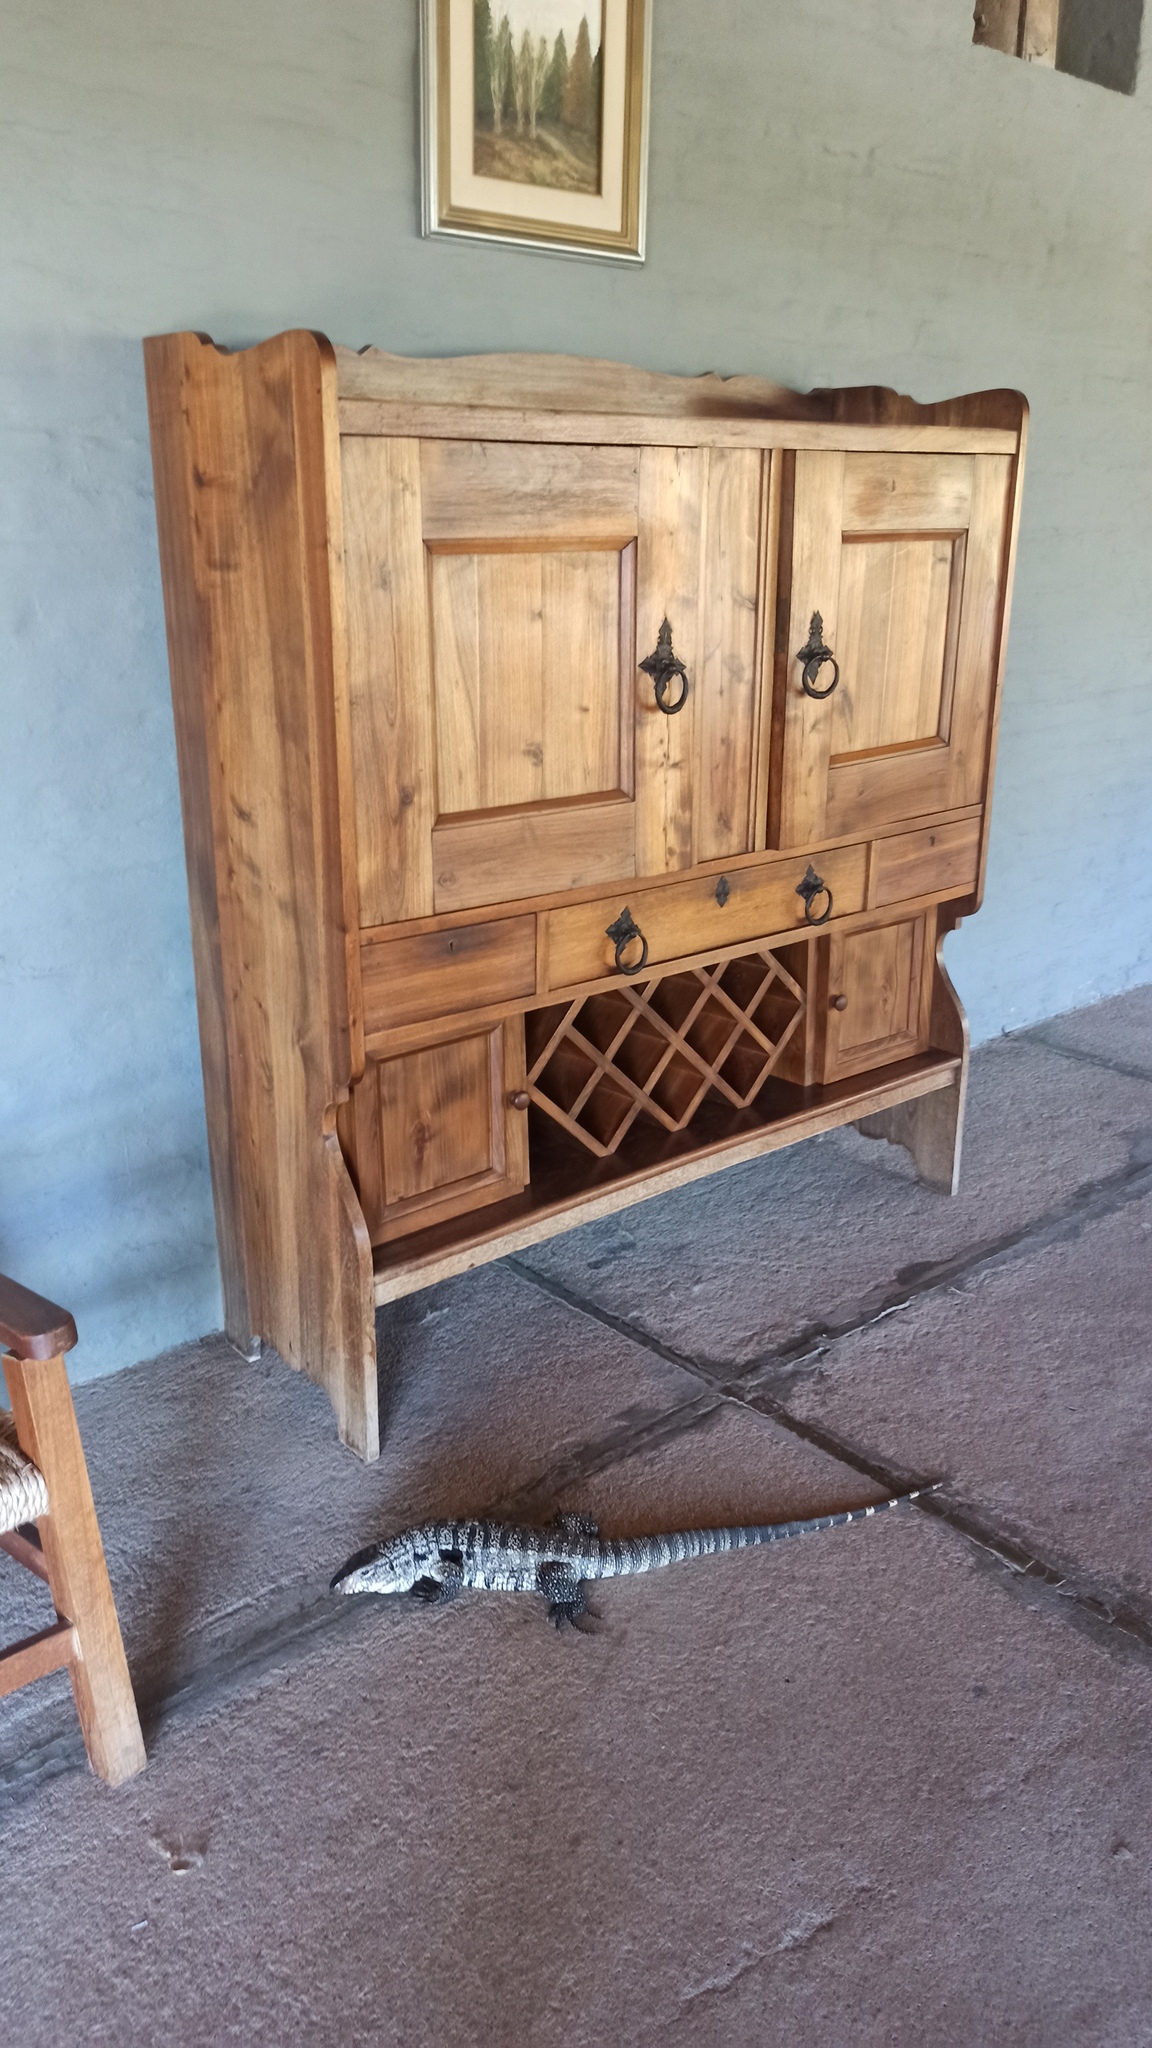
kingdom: Animalia
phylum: Chordata
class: Squamata
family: Teiidae
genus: Salvator
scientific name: Salvator merianae
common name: Argentine black and white tegu
